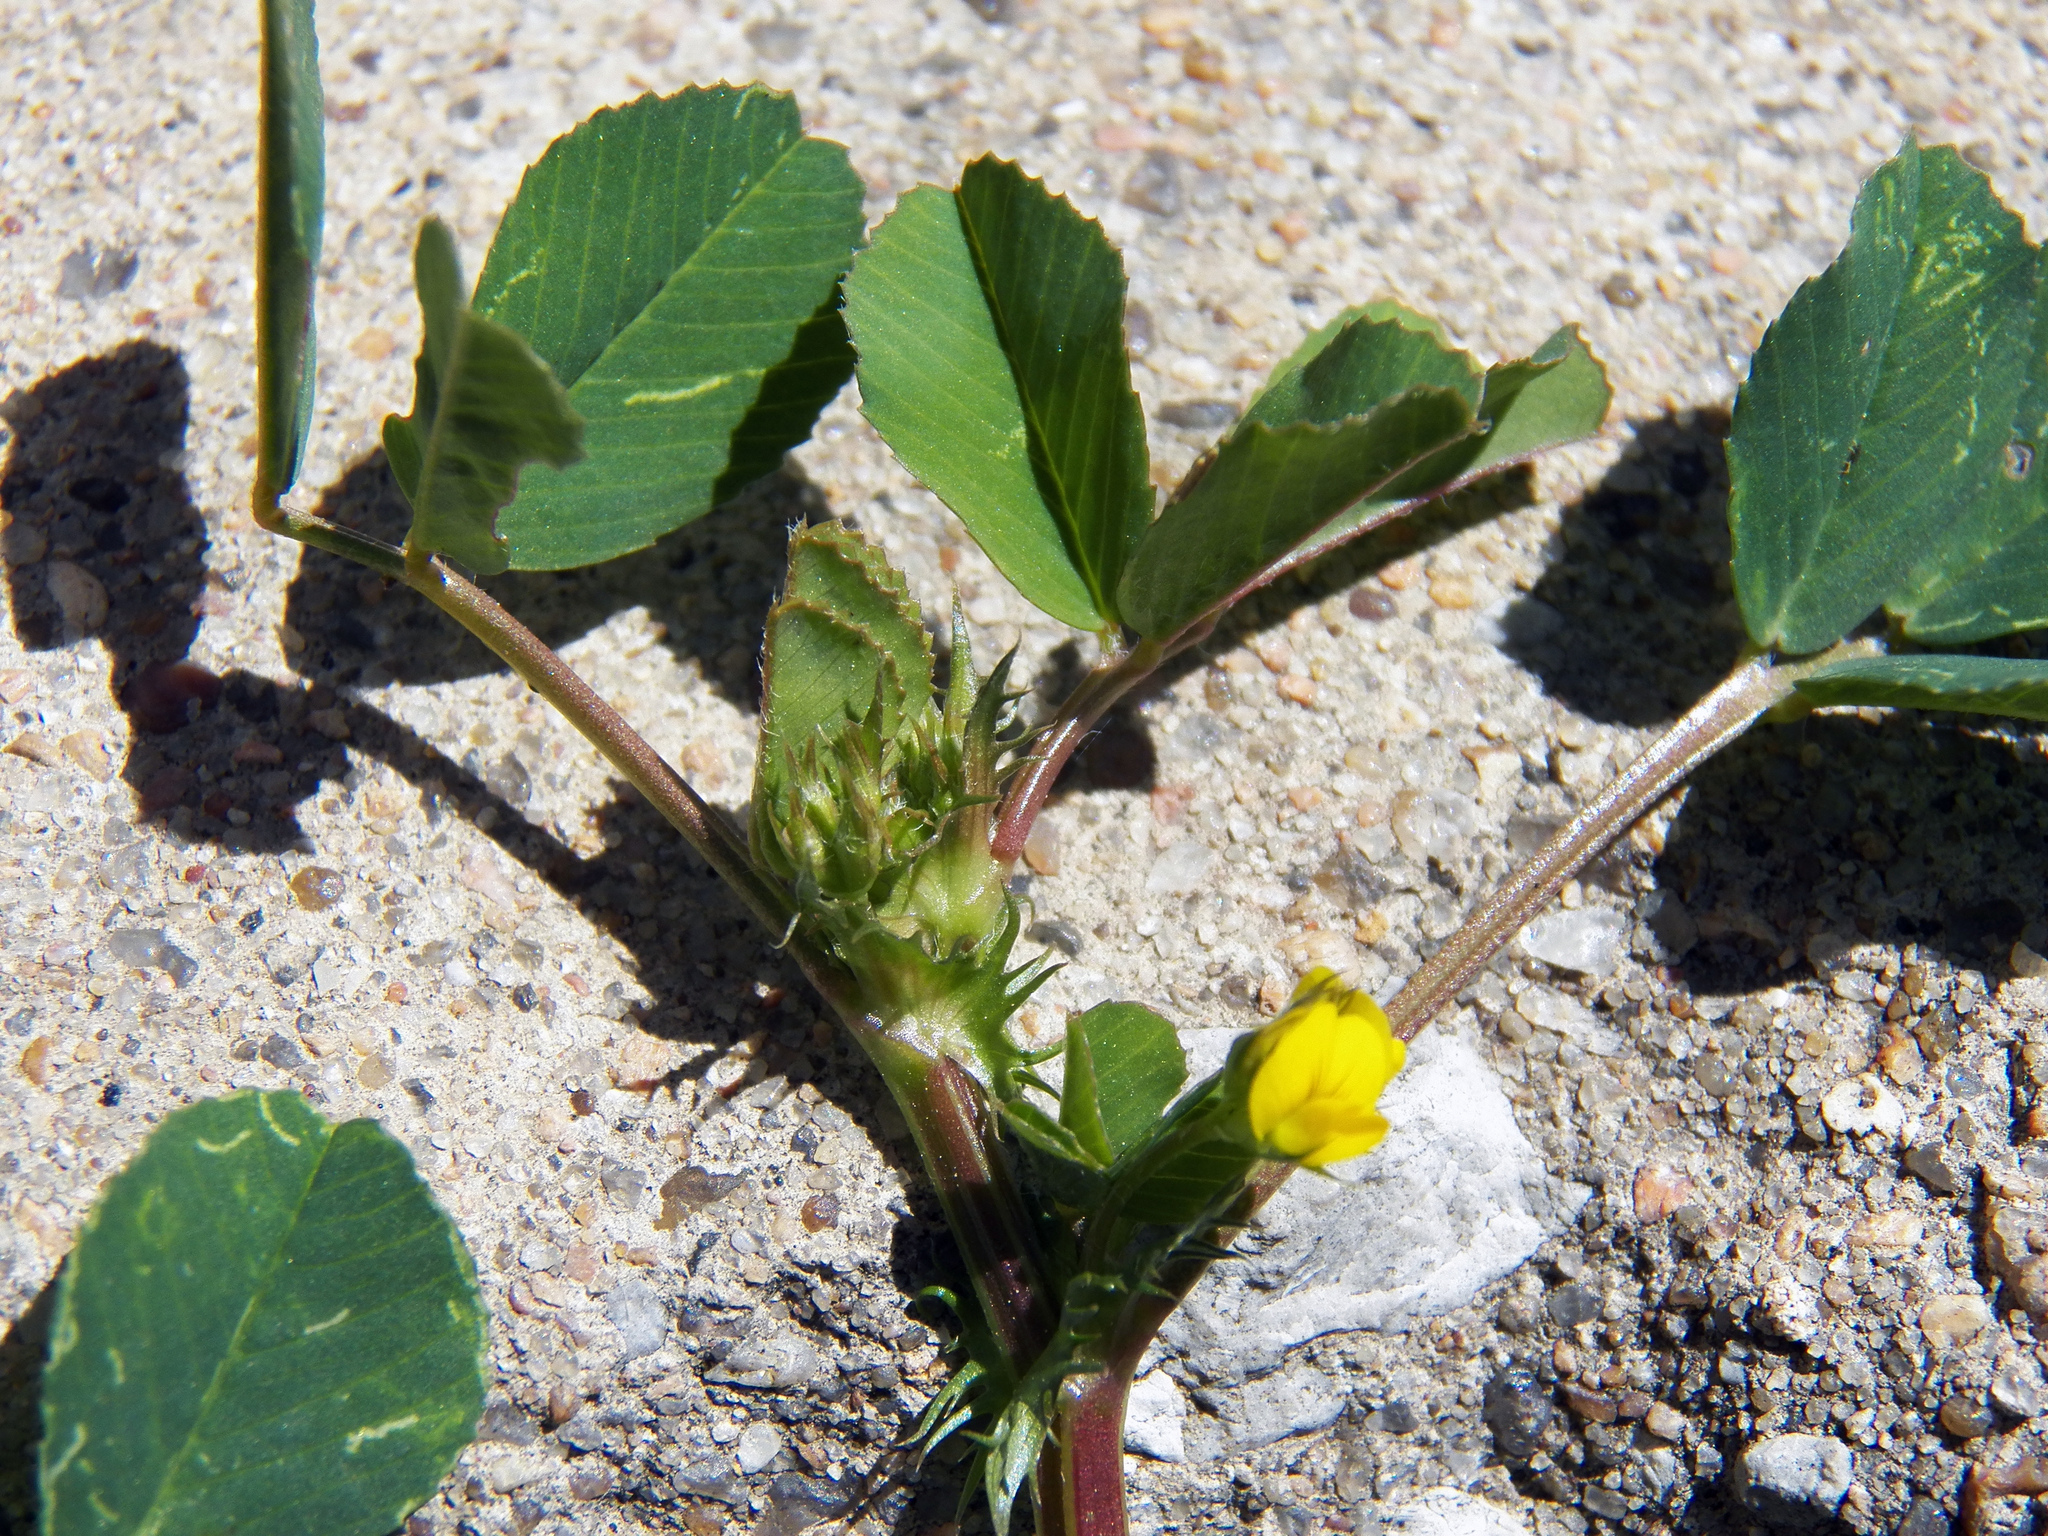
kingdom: Plantae
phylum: Tracheophyta
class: Magnoliopsida
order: Fabales
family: Fabaceae
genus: Medicago
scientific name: Medicago polymorpha
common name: Burclover
